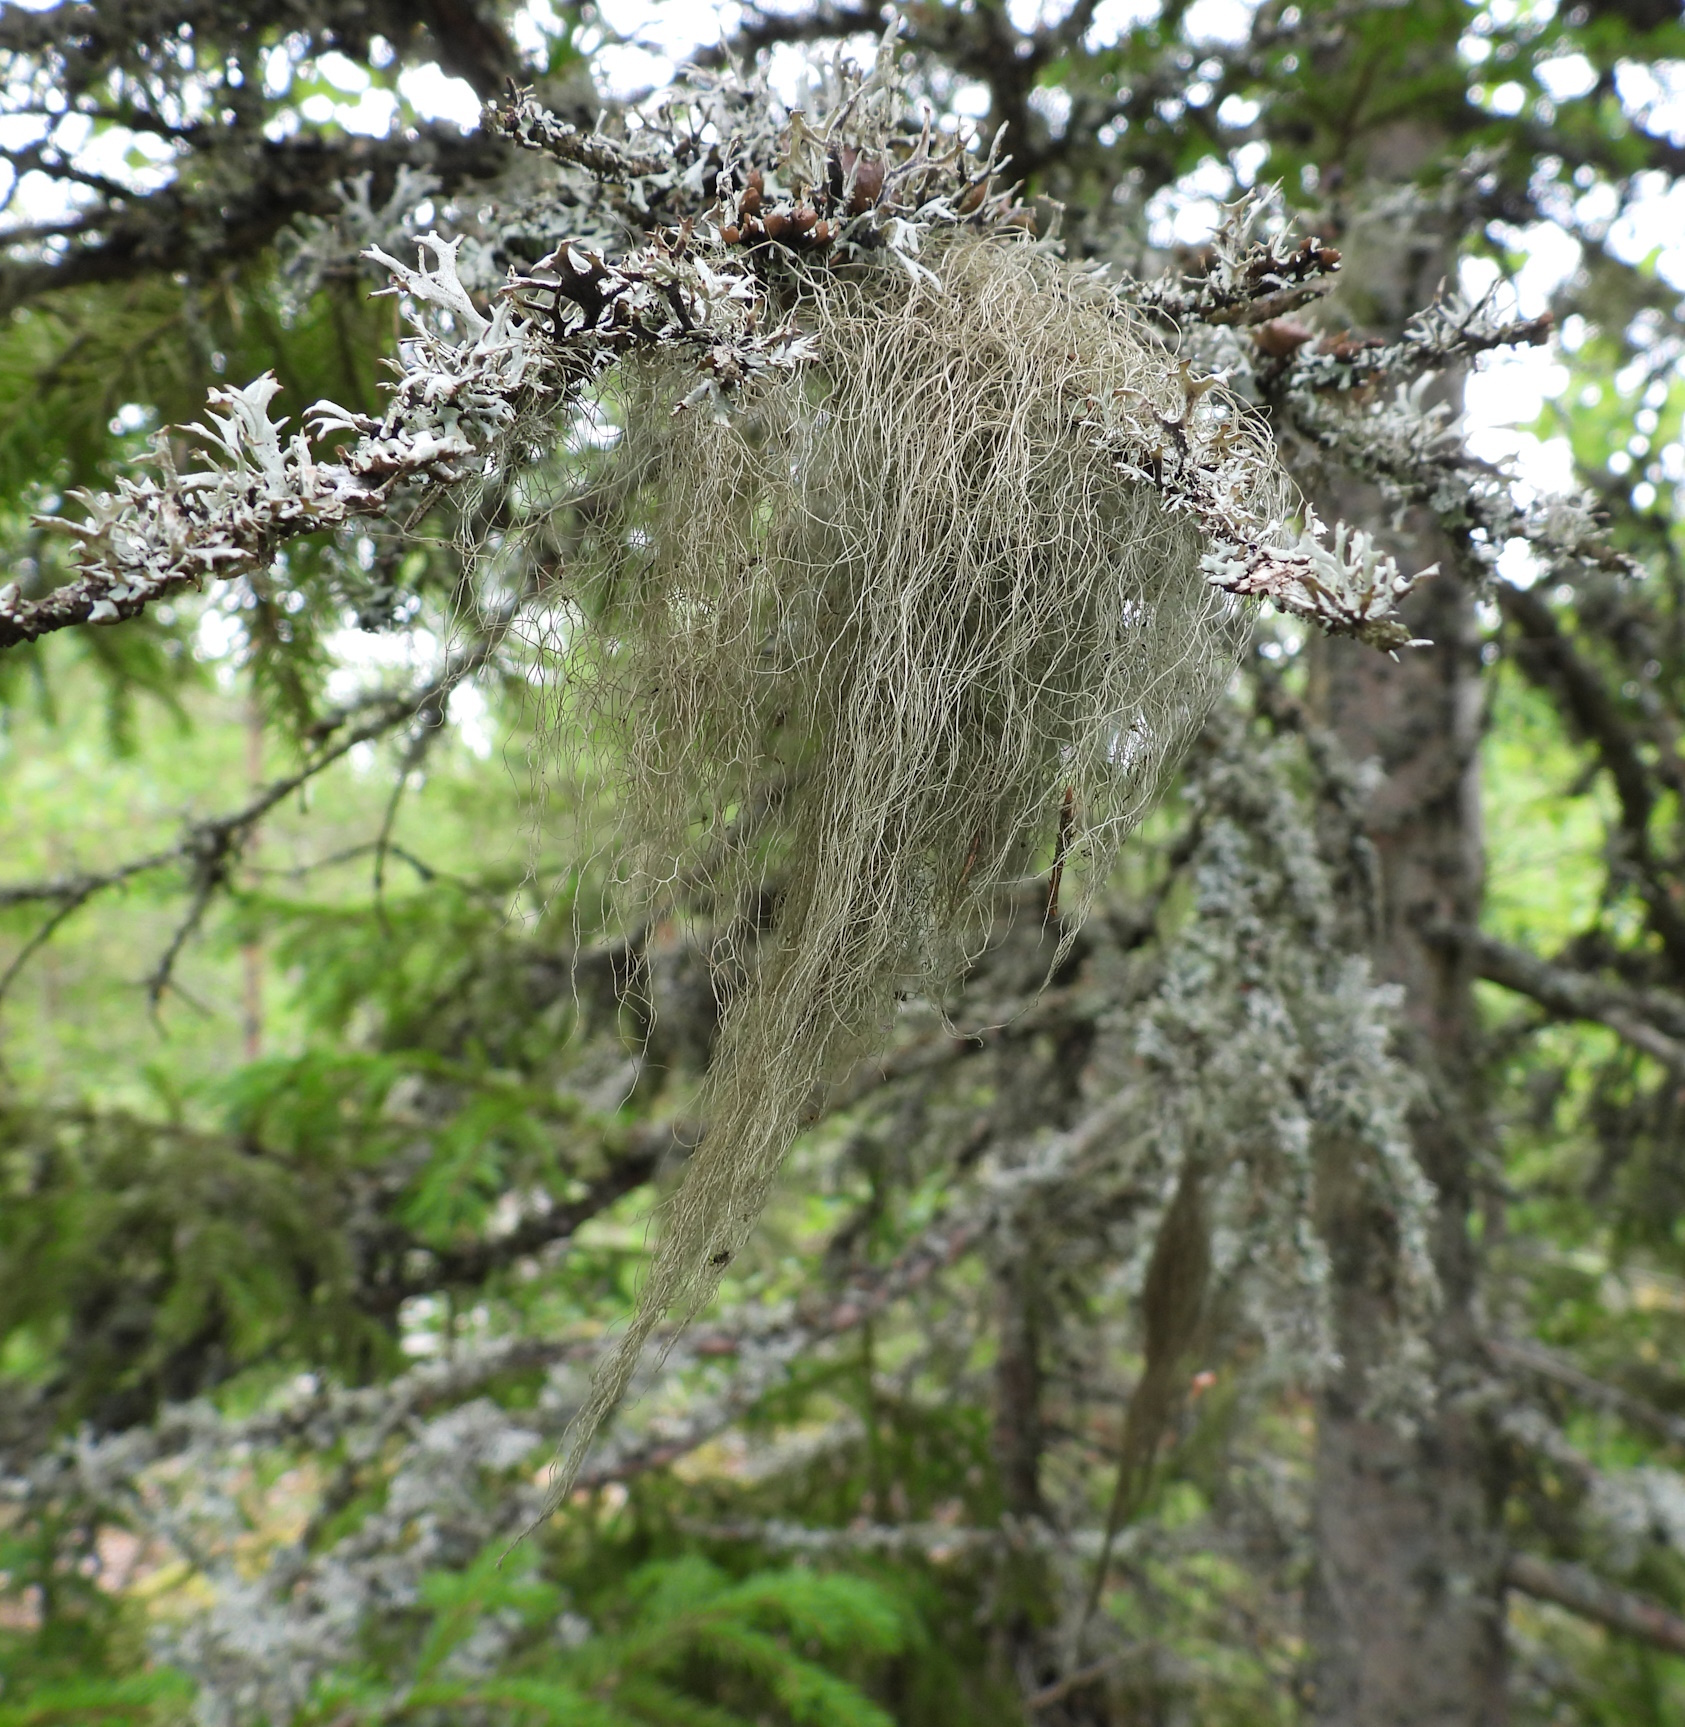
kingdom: Fungi
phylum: Ascomycota
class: Lecanoromycetes
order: Lecanorales
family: Parmeliaceae
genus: Bryoria
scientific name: Bryoria fuscescens
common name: Pale-footed horsehair lichen
